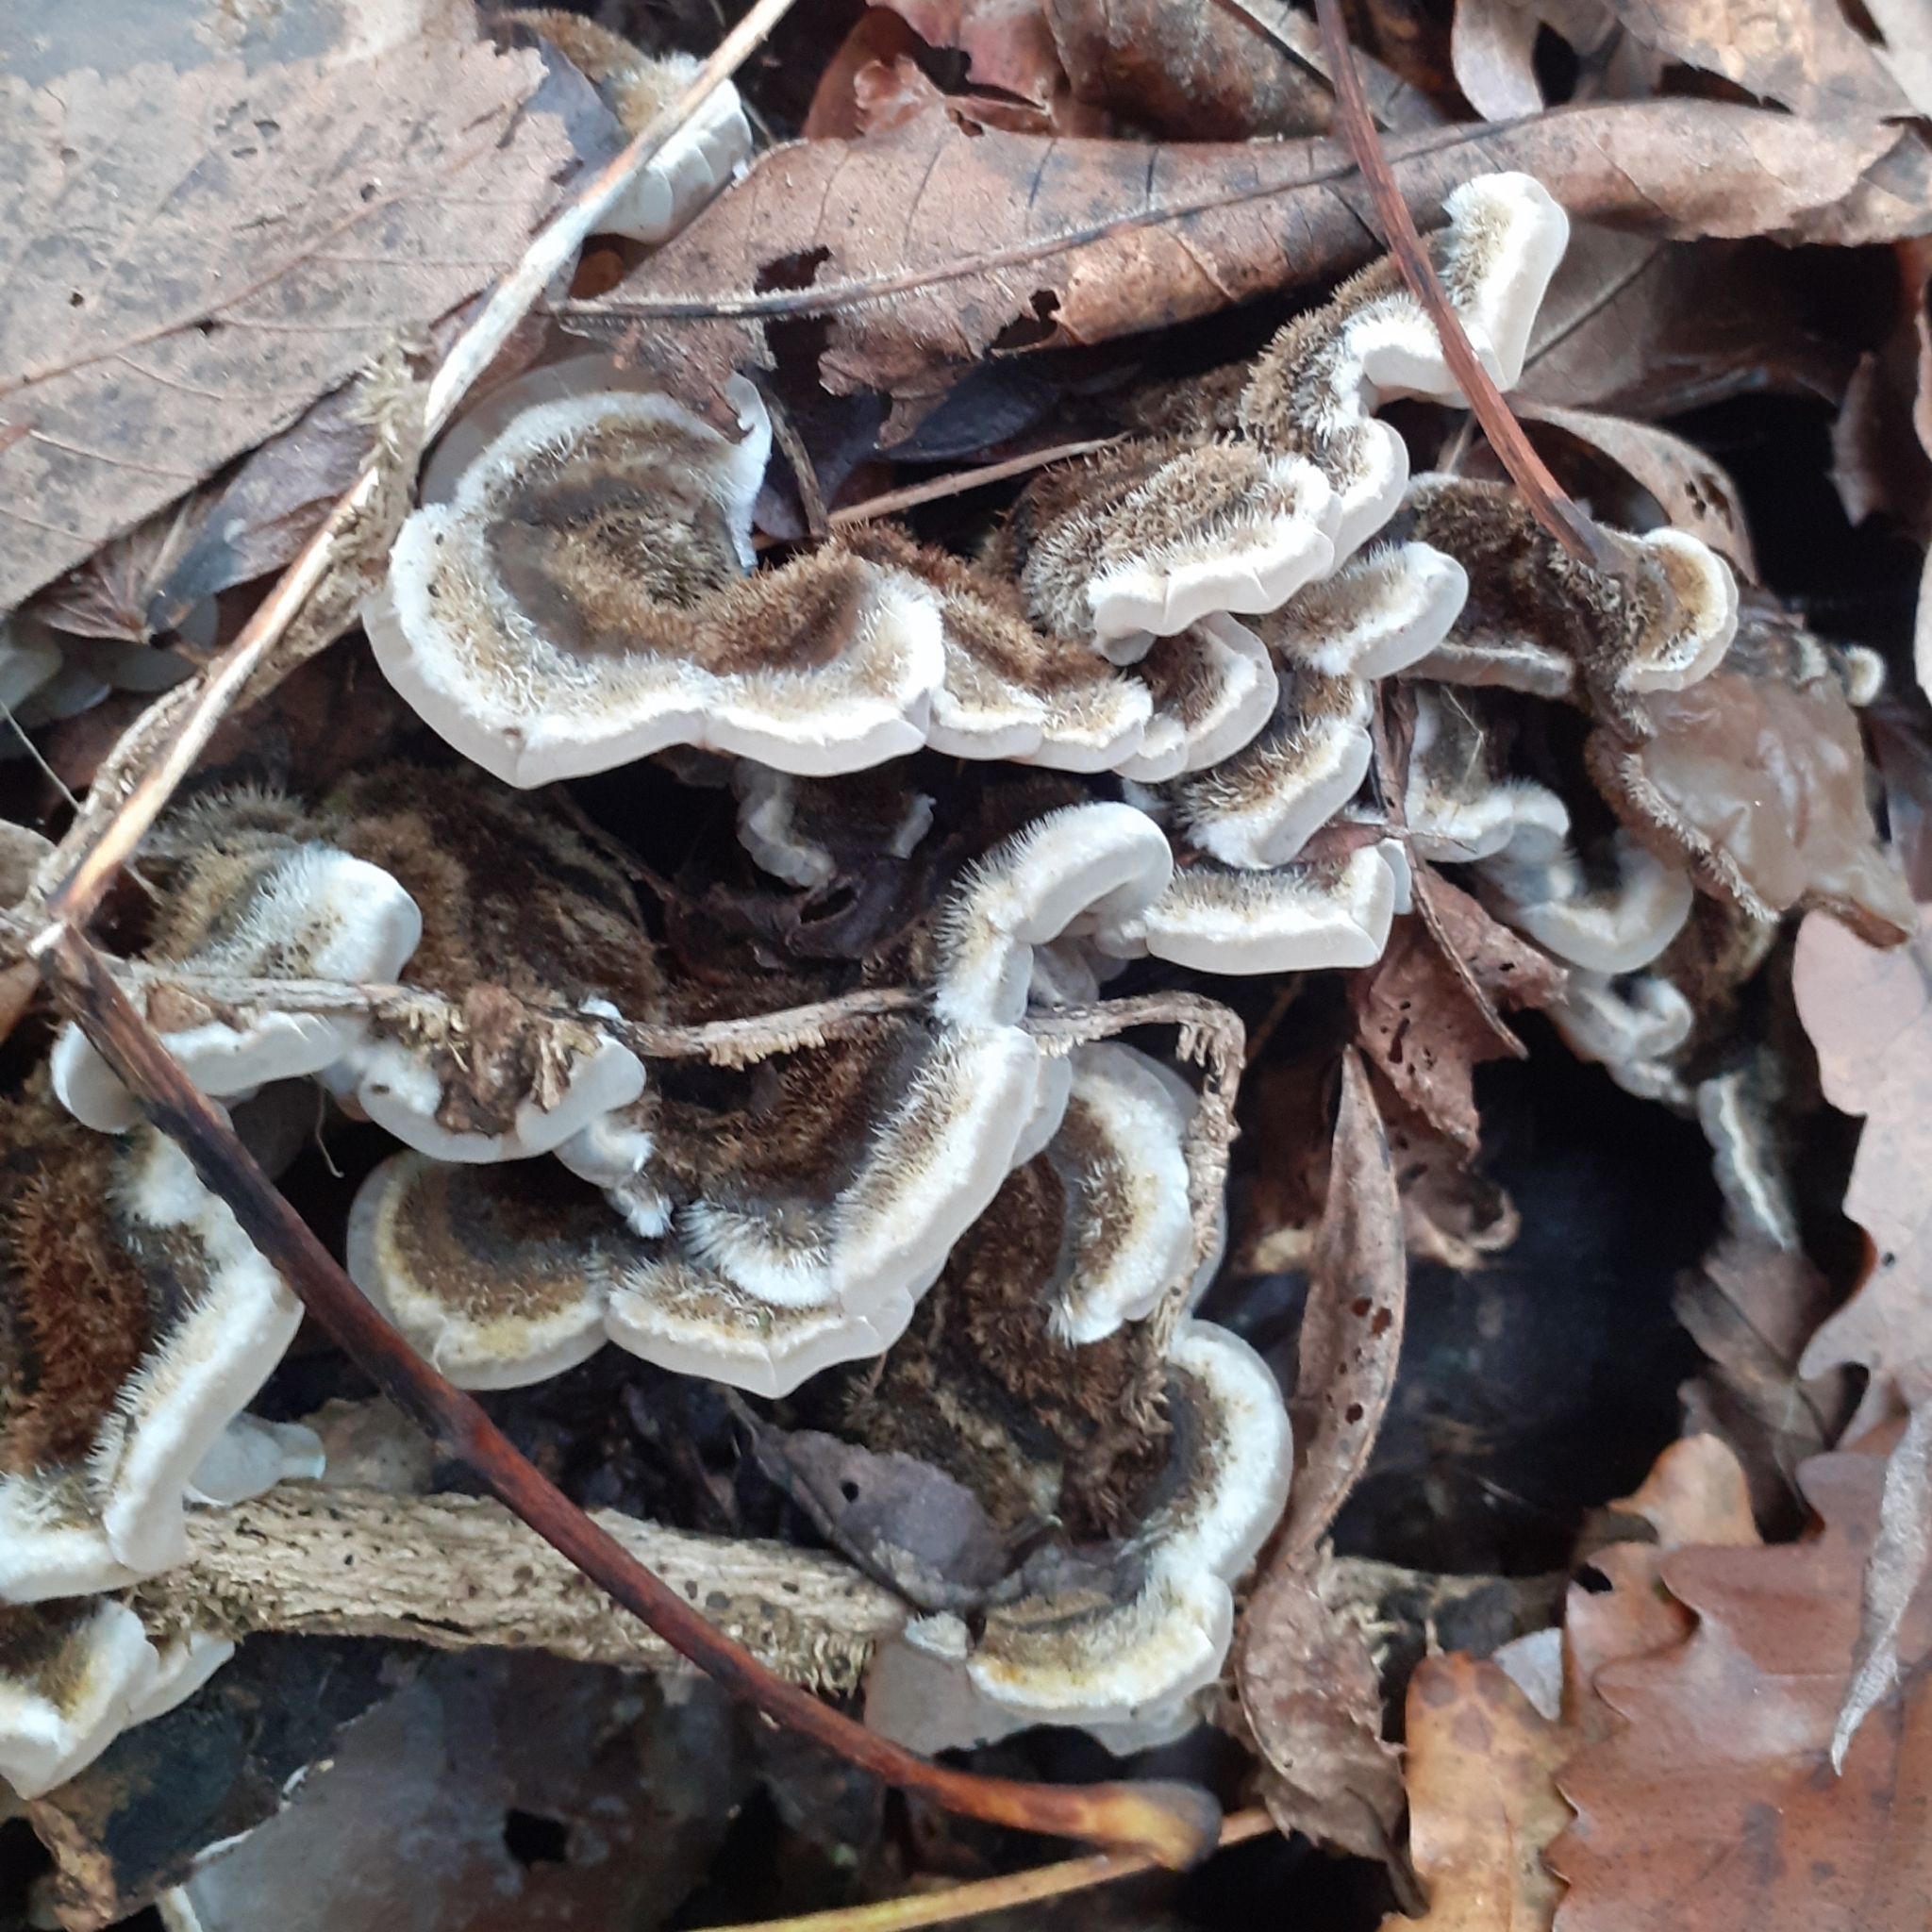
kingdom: Fungi
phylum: Basidiomycota
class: Agaricomycetes
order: Auriculariales
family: Auriculariaceae
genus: Auricularia
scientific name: Auricularia mesenterica
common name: Tripe fungus
